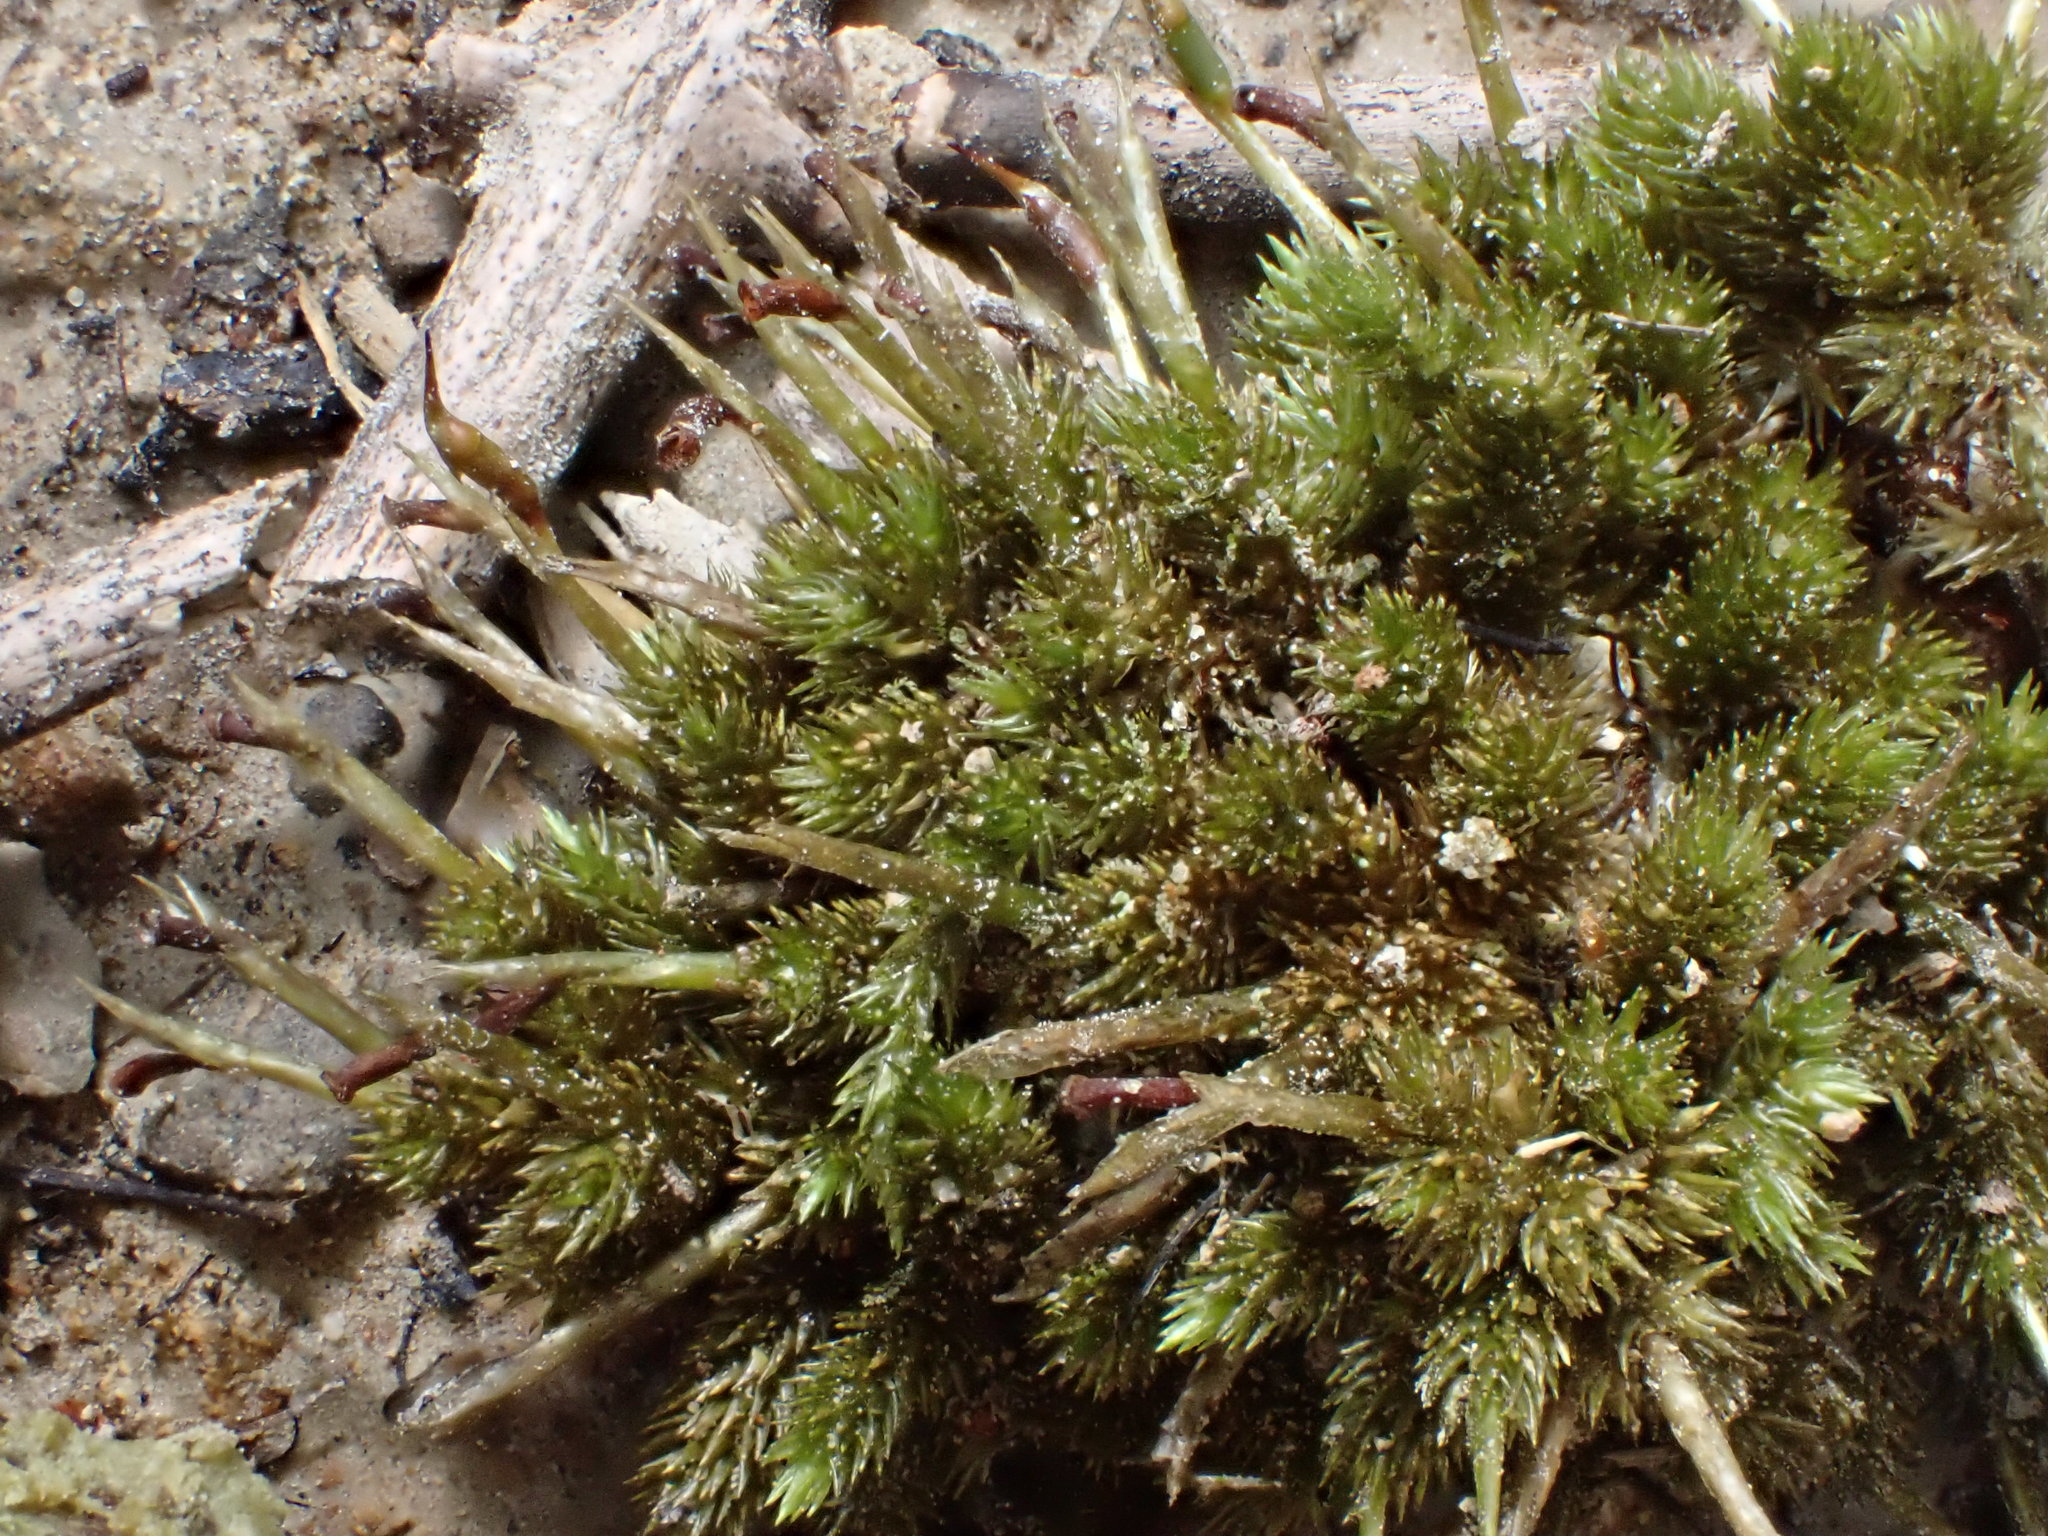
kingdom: Plantae
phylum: Bryophyta
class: Bryopsida
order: Dicranales
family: Dicranaceae
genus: Dicnemon
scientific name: Dicnemon calycinum
